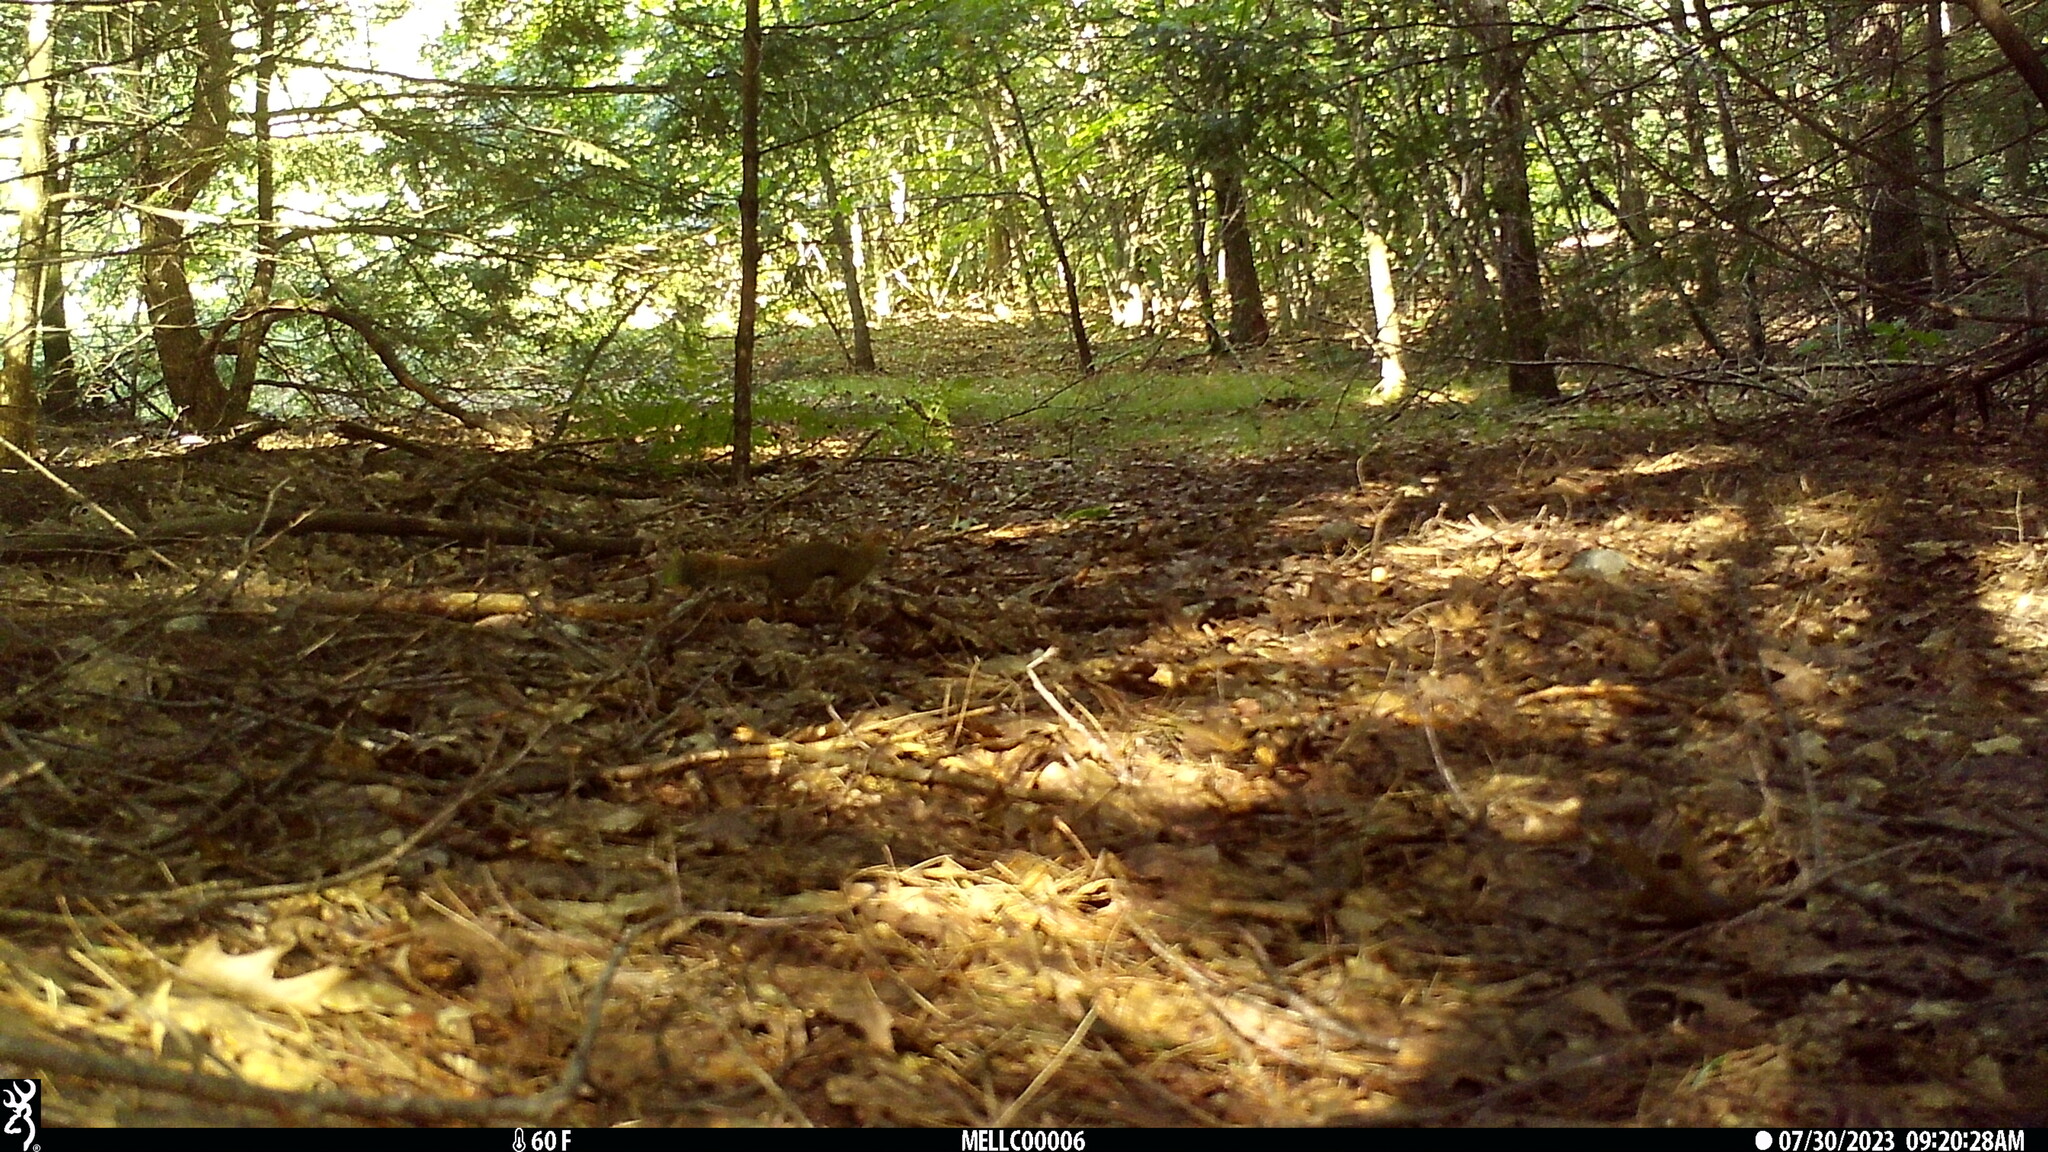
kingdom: Animalia
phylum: Chordata
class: Mammalia
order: Rodentia
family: Sciuridae
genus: Tamiasciurus
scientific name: Tamiasciurus hudsonicus
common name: Red squirrel
